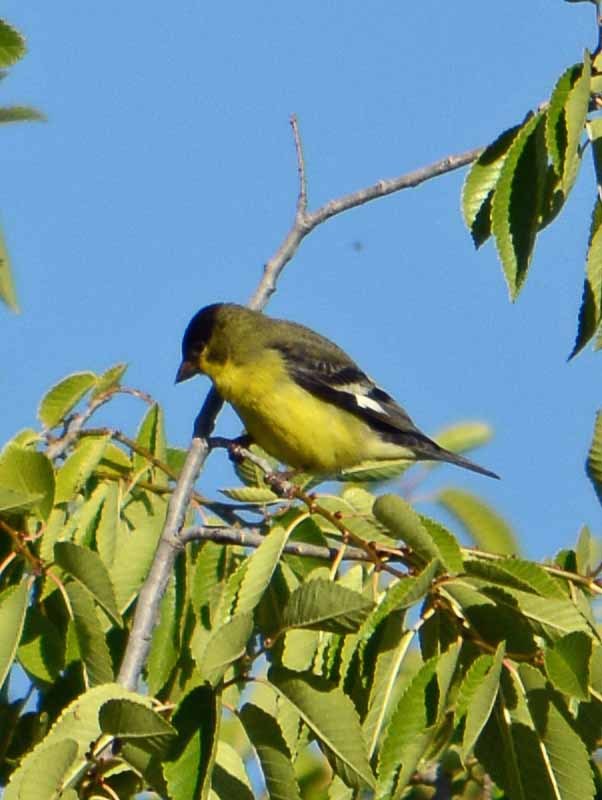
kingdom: Animalia
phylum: Chordata
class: Aves
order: Passeriformes
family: Fringillidae
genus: Spinus
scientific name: Spinus psaltria
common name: Lesser goldfinch
